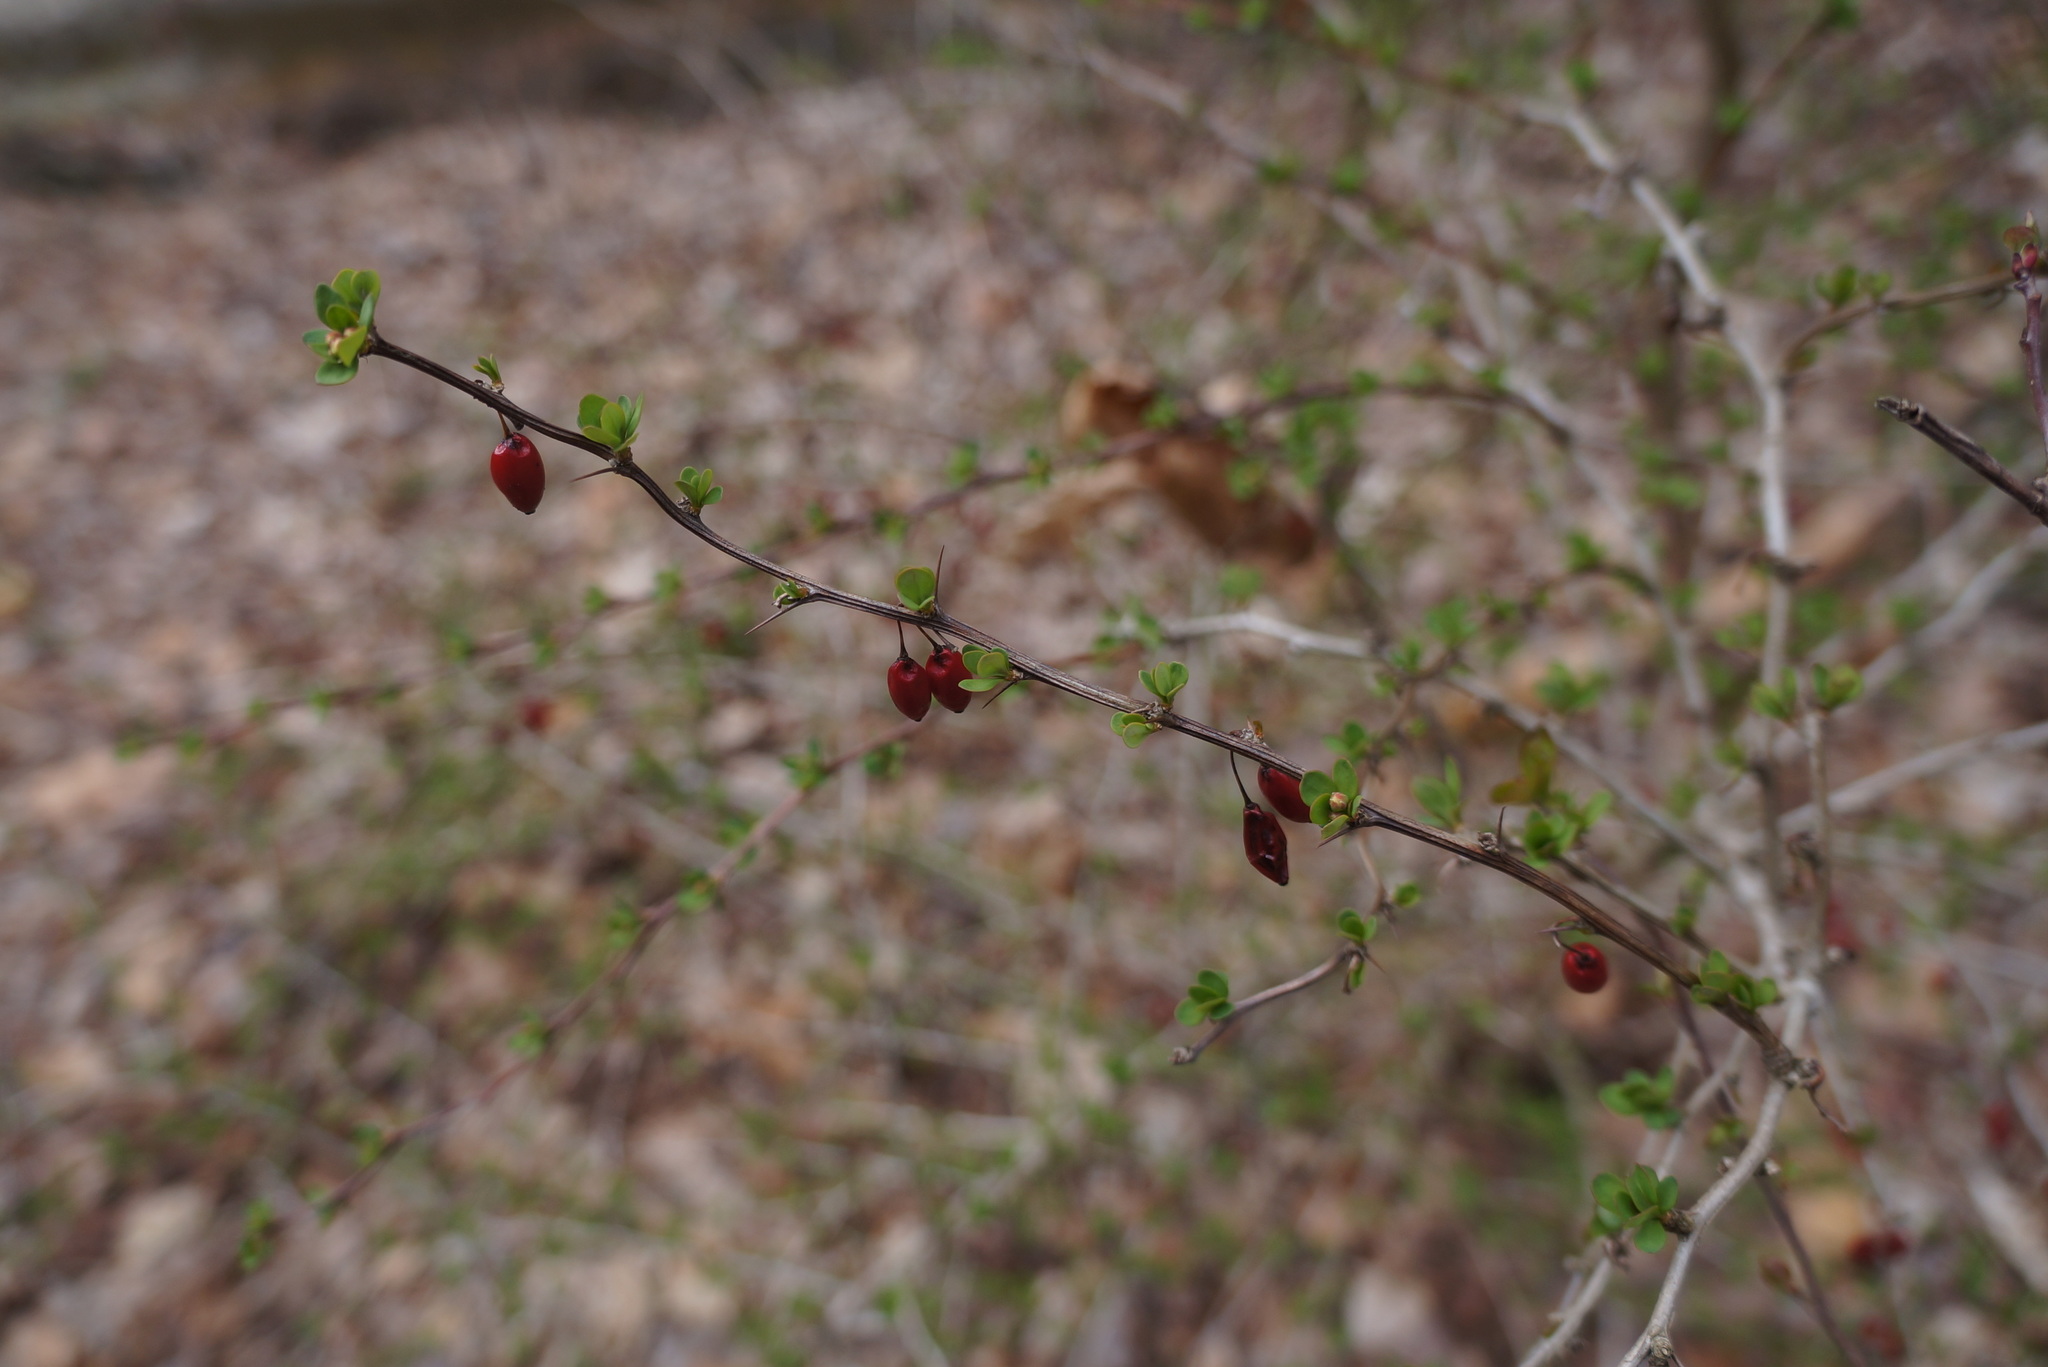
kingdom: Plantae
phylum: Tracheophyta
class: Magnoliopsida
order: Ranunculales
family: Berberidaceae
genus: Berberis
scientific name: Berberis thunbergii
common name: Japanese barberry
